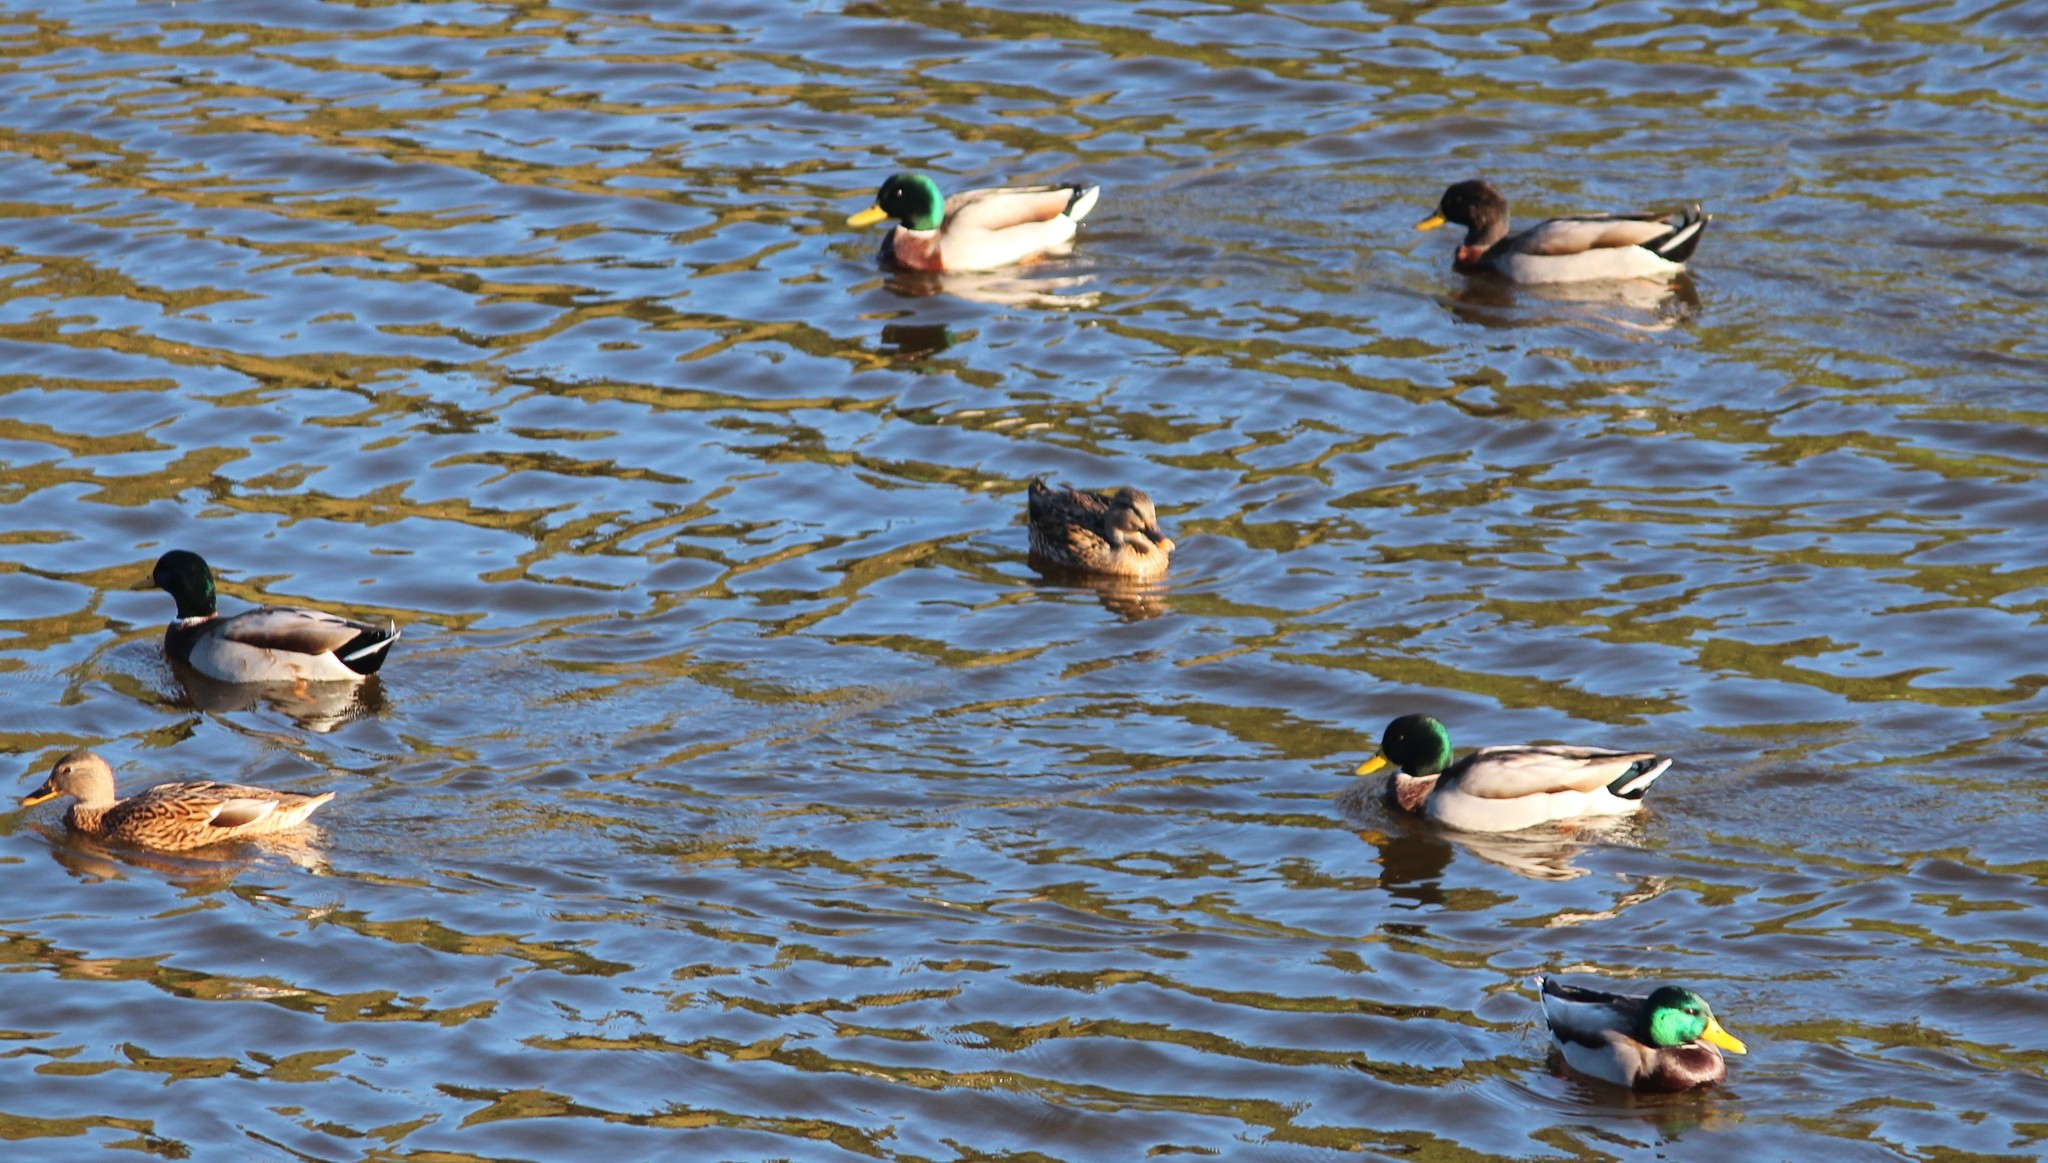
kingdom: Animalia
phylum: Chordata
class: Aves
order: Anseriformes
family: Anatidae
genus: Anas
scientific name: Anas platyrhynchos
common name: Mallard
